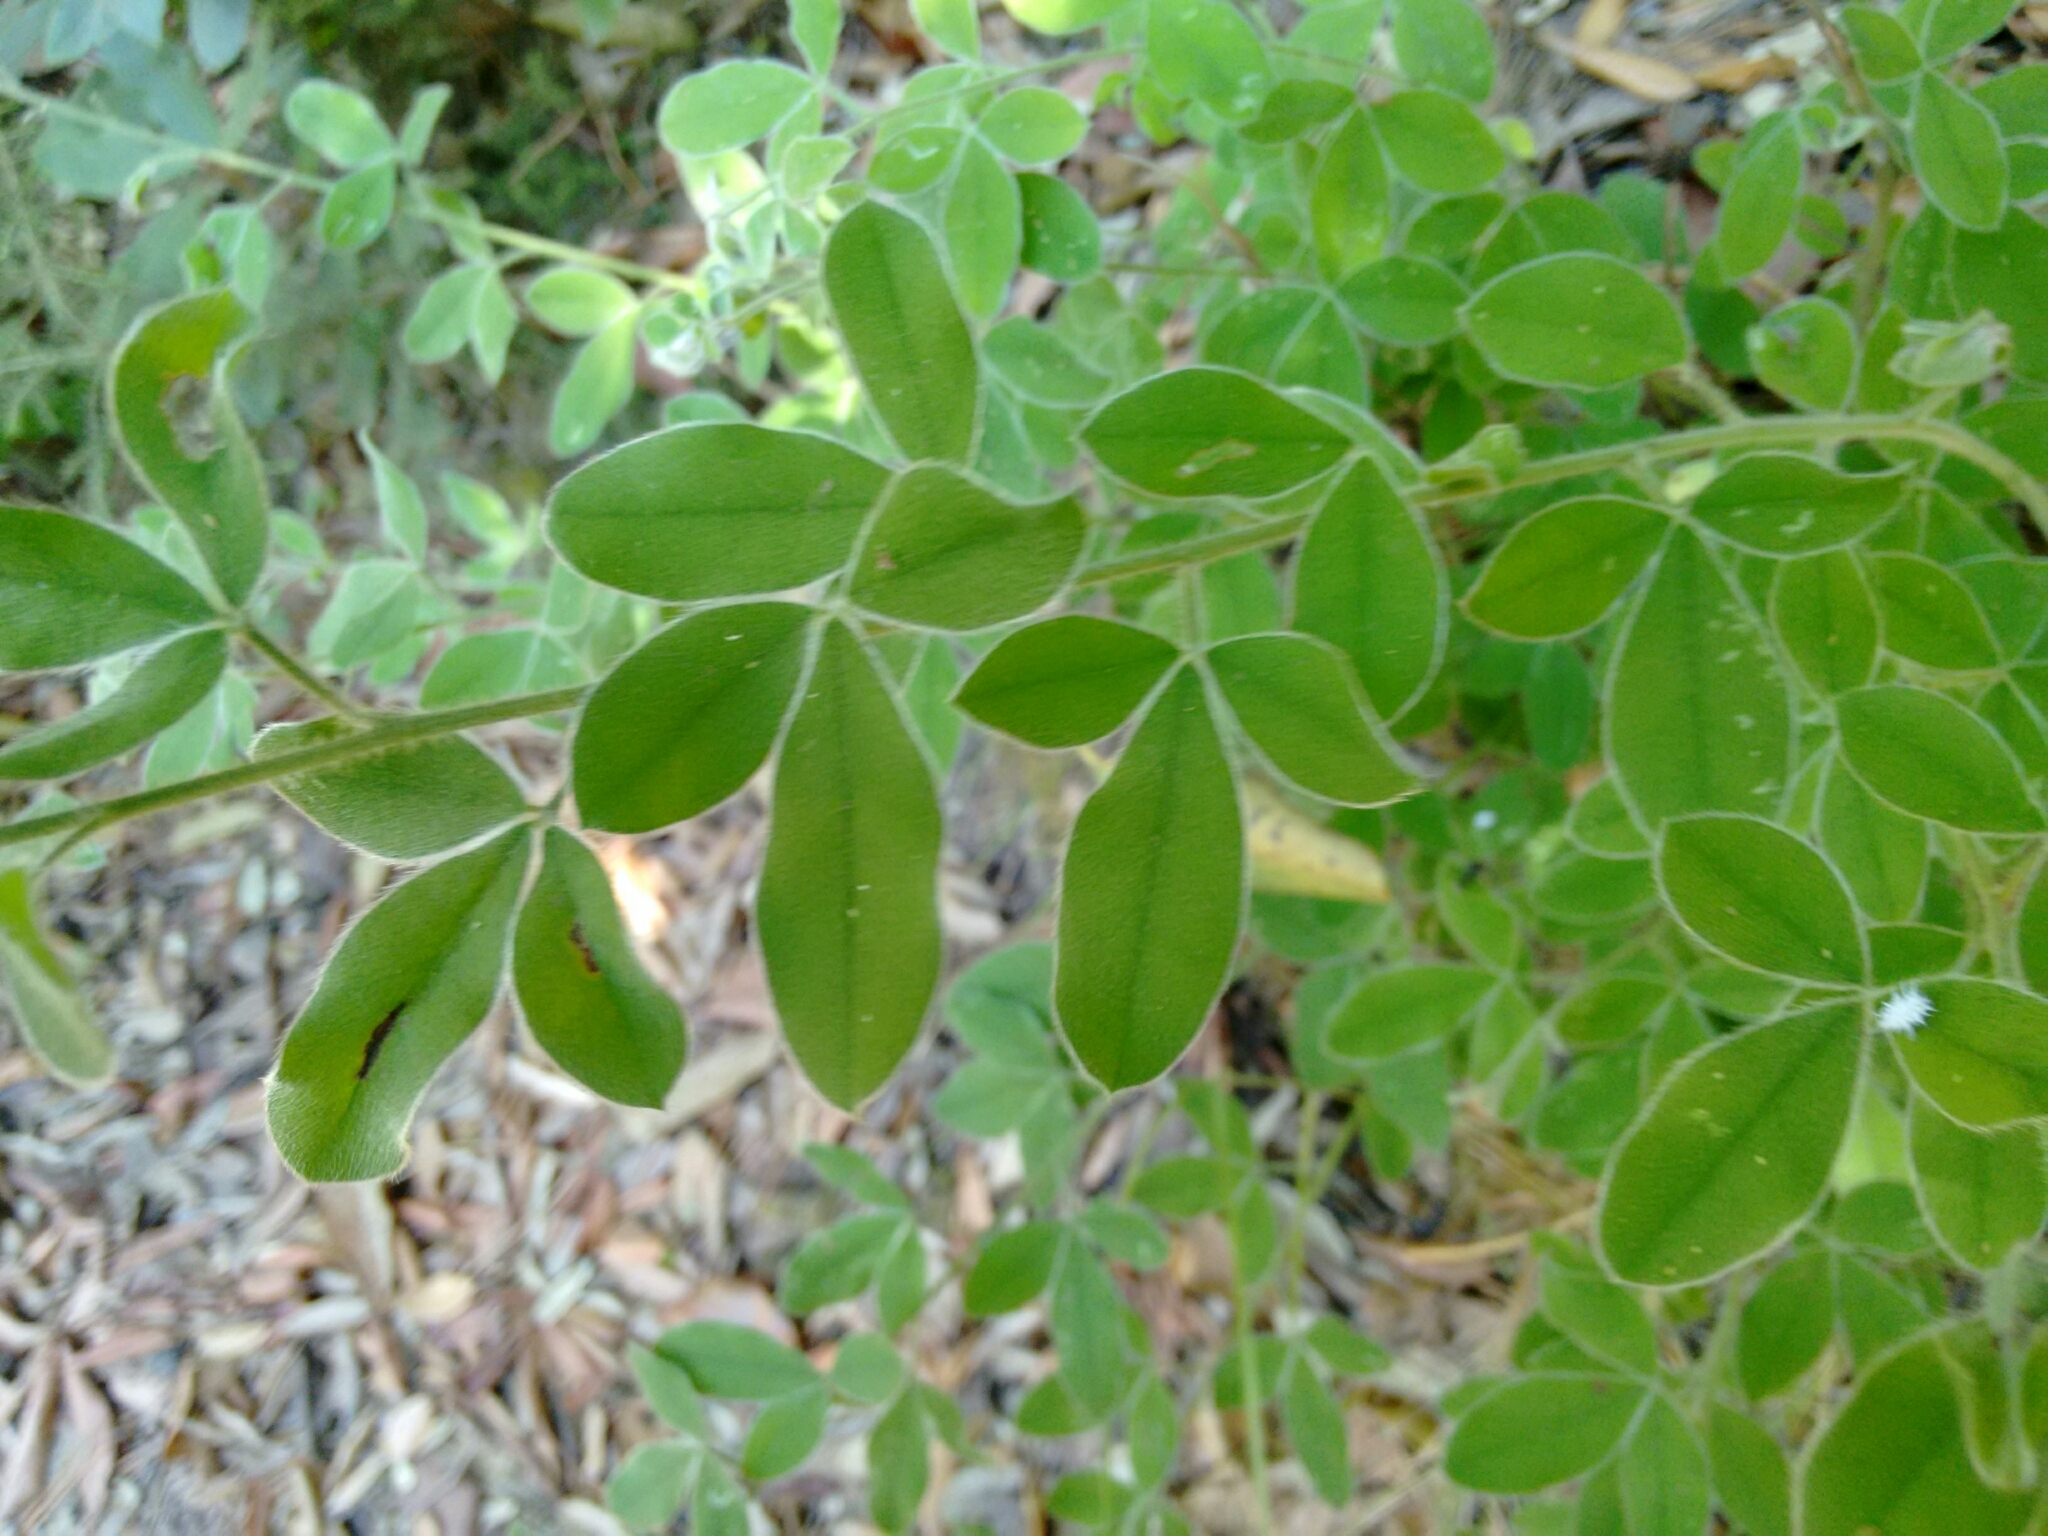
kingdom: Plantae
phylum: Tracheophyta
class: Magnoliopsida
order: Fabales
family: Fabaceae
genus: Cytisus
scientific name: Cytisus villosus
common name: Hairybroom
